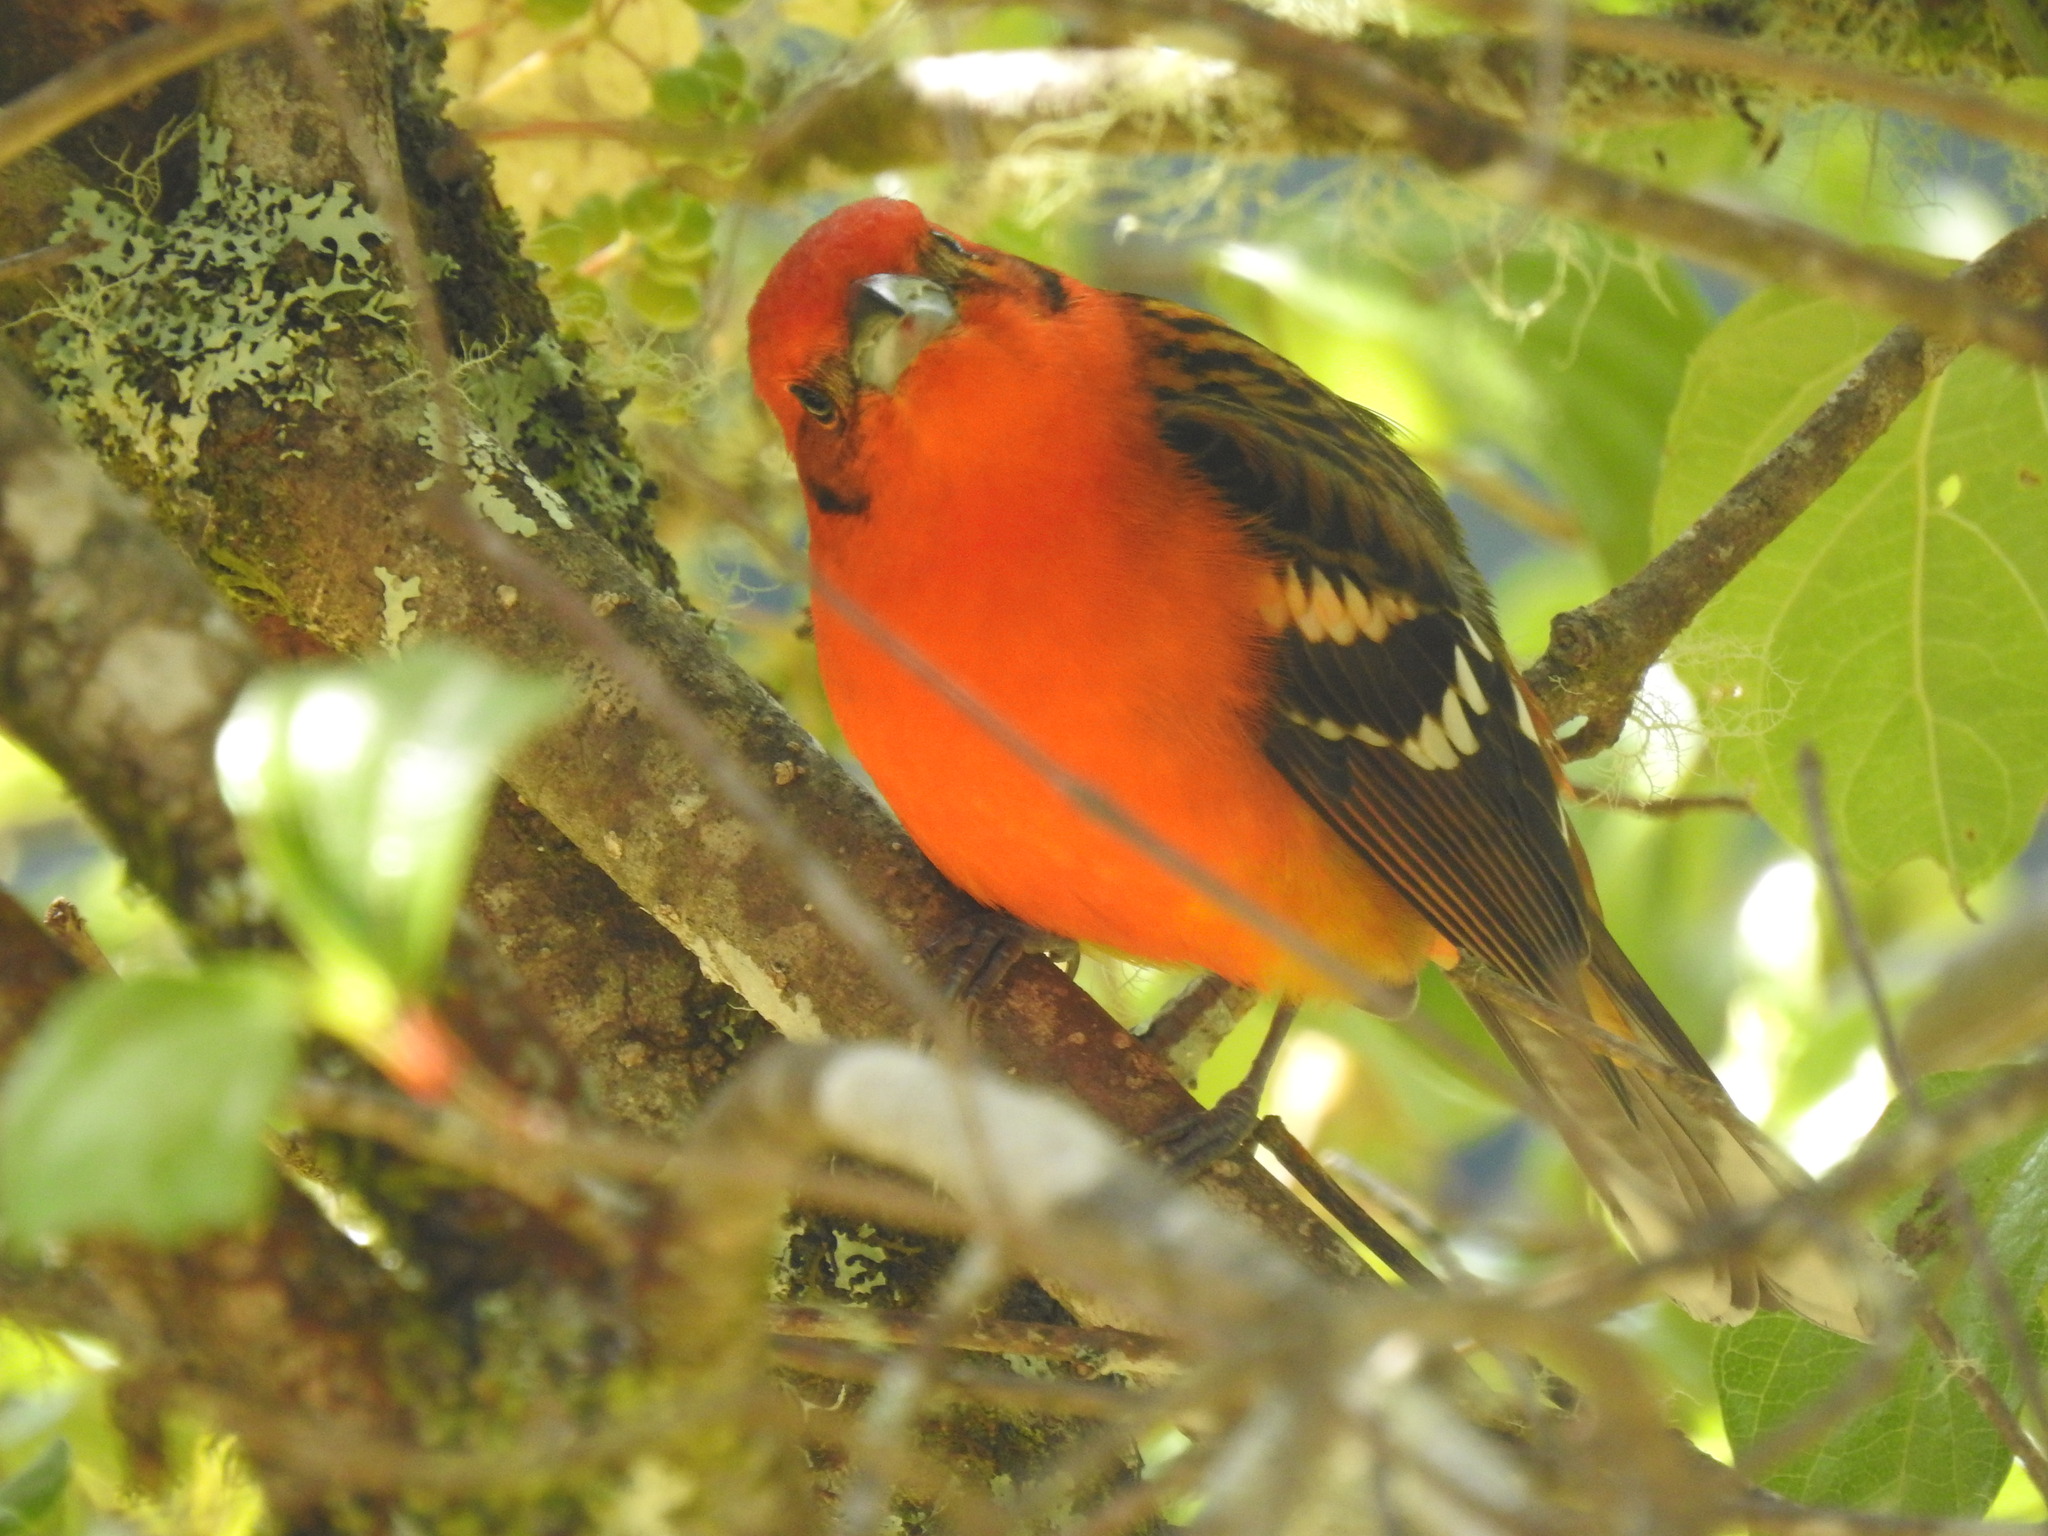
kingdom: Animalia
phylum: Chordata
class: Aves
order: Passeriformes
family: Cardinalidae
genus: Piranga
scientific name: Piranga bidentata
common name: Flame-colored tanager
